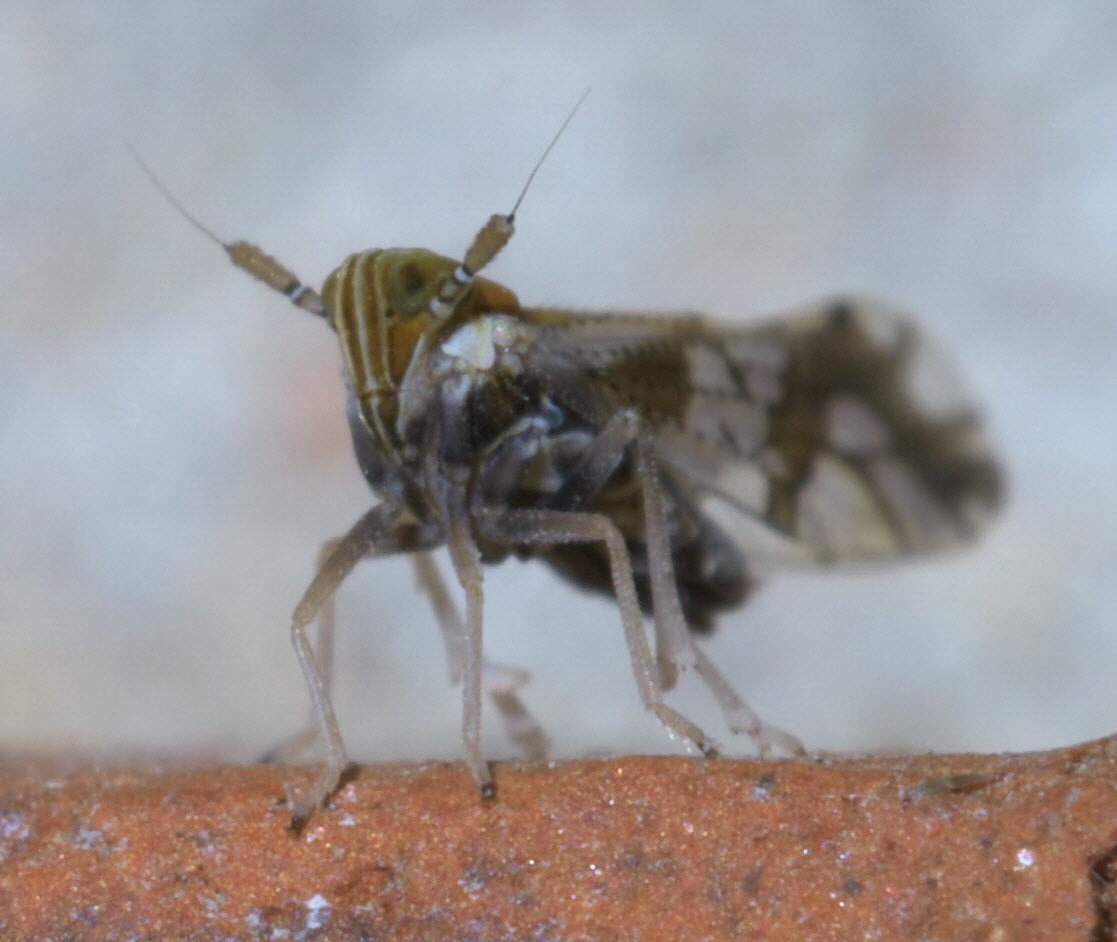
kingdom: Animalia
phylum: Arthropoda
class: Insecta
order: Hemiptera
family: Delphacidae
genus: Liburniella
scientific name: Liburniella ornata
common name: Ornate planthopper
